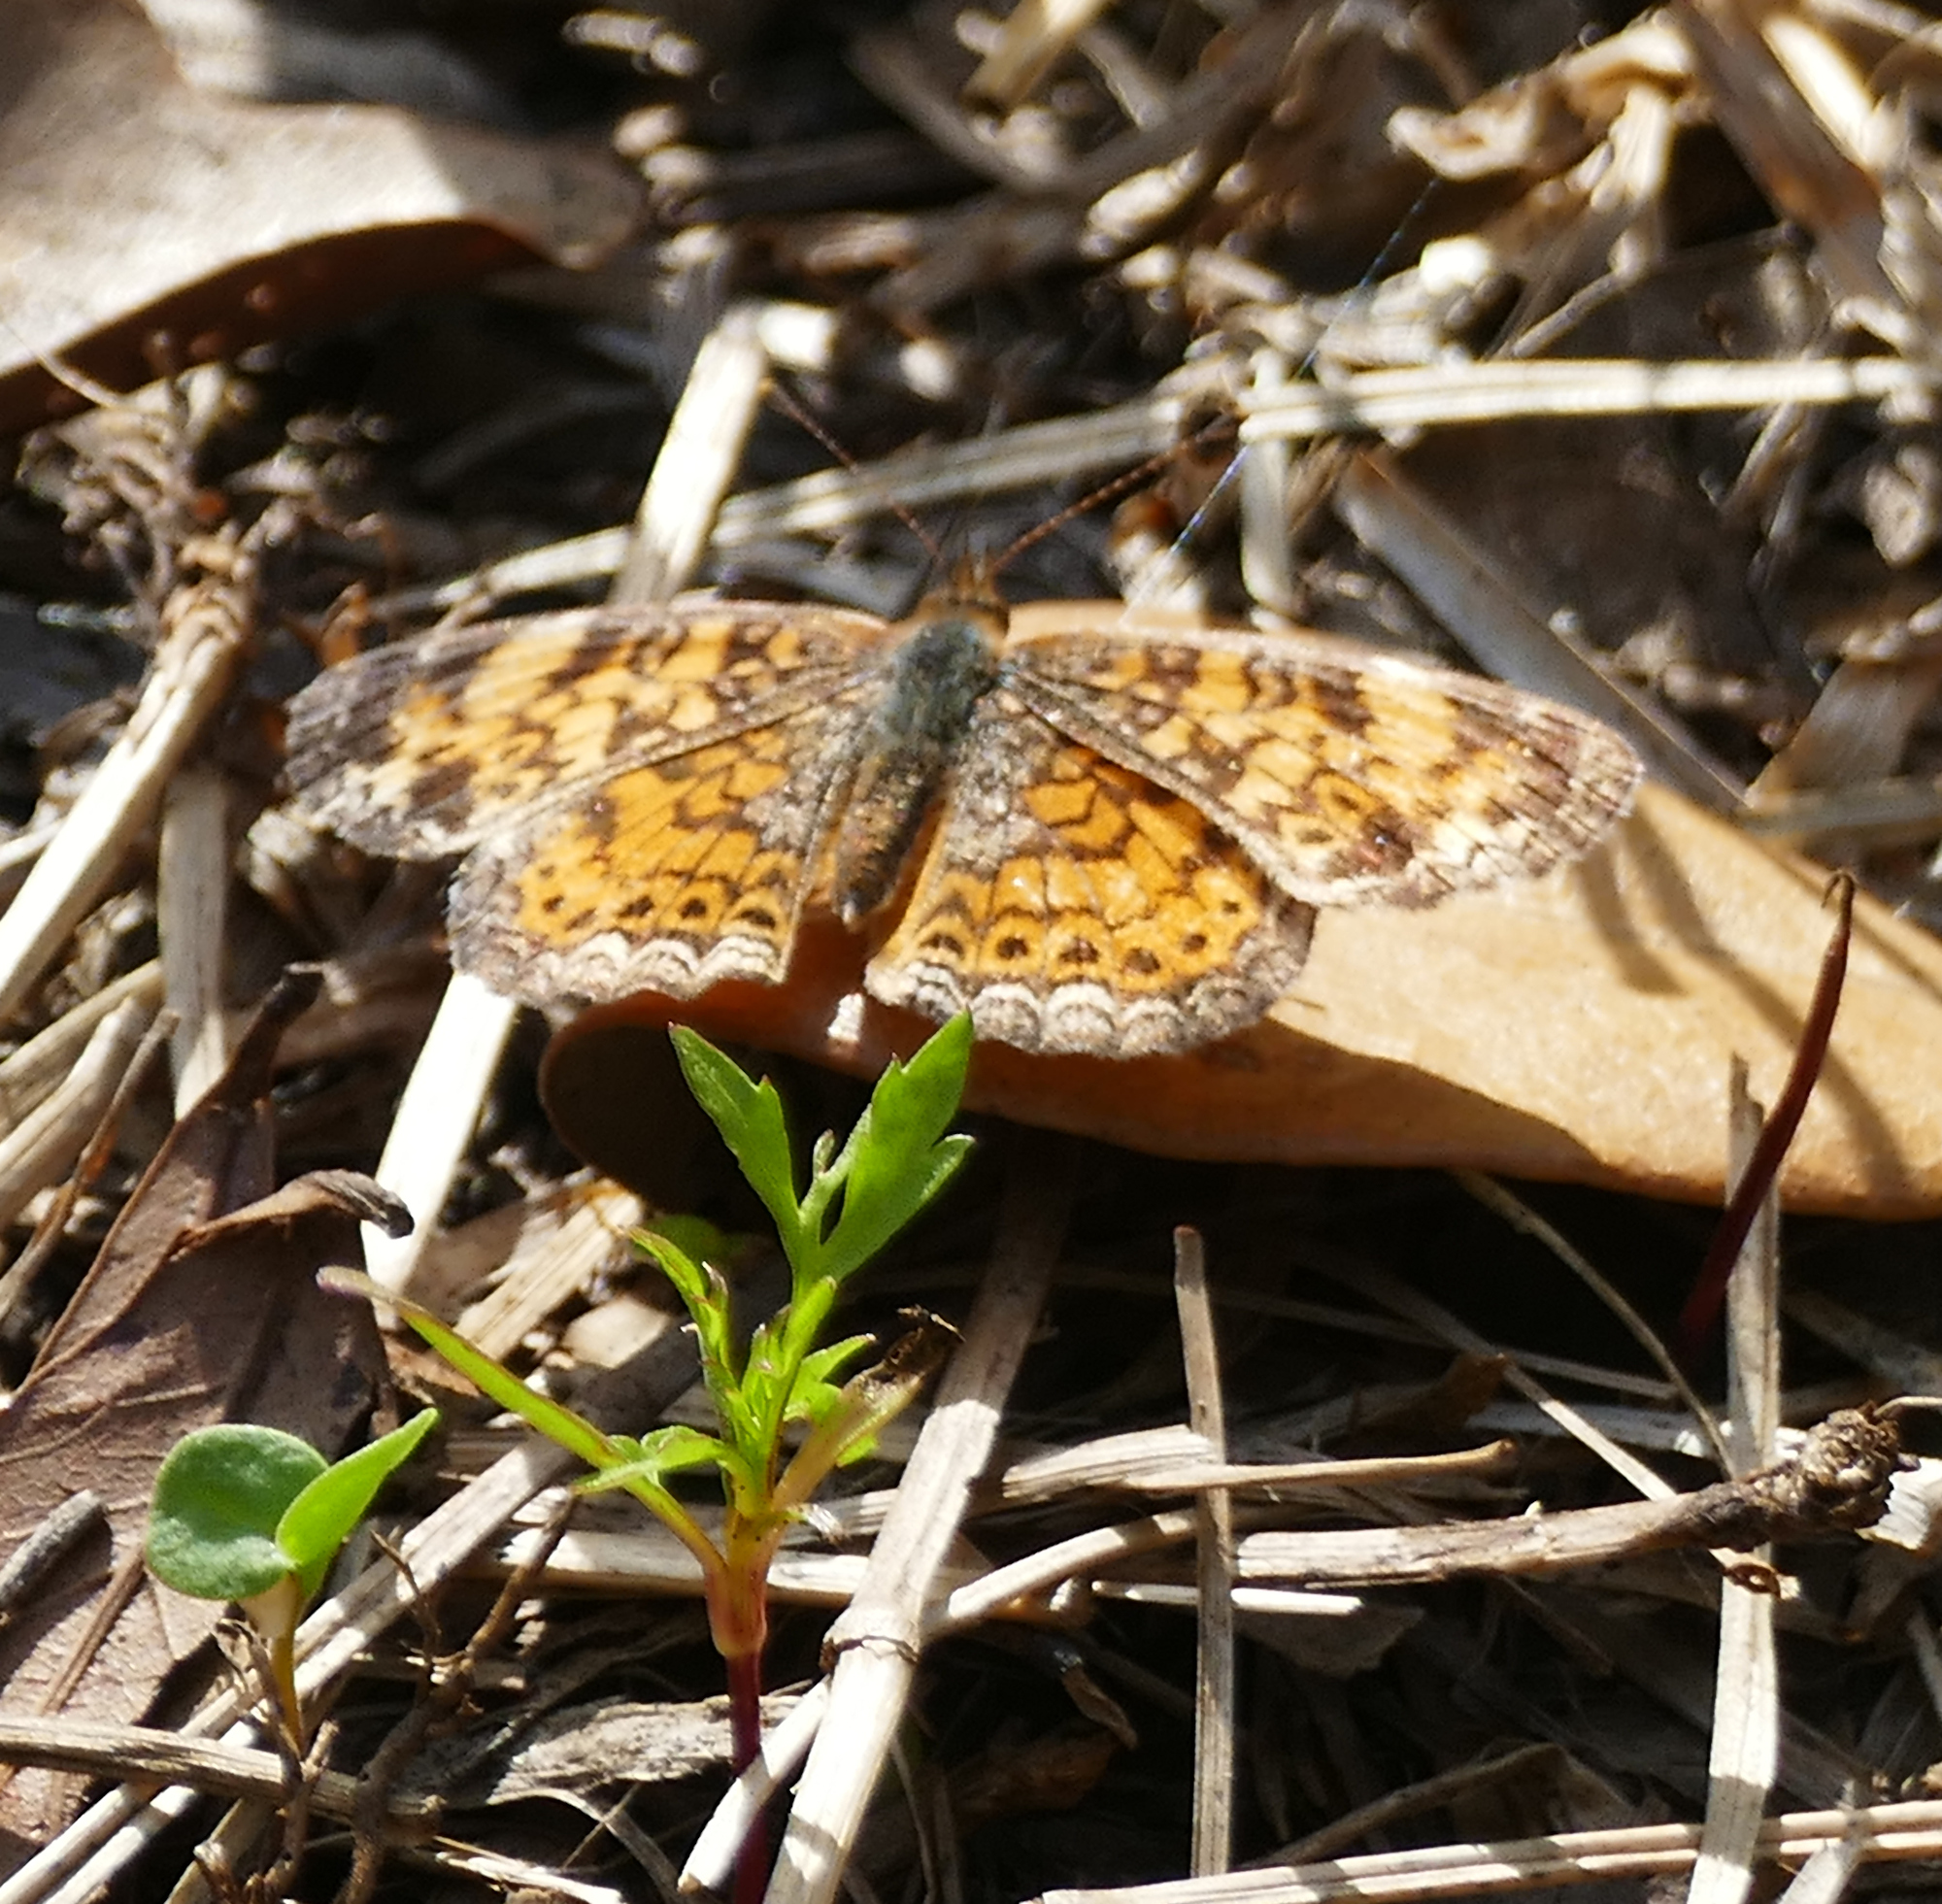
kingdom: Animalia
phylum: Arthropoda
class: Insecta
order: Lepidoptera
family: Nymphalidae
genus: Phyciodes
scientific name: Phyciodes tharos
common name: Pearl crescent
